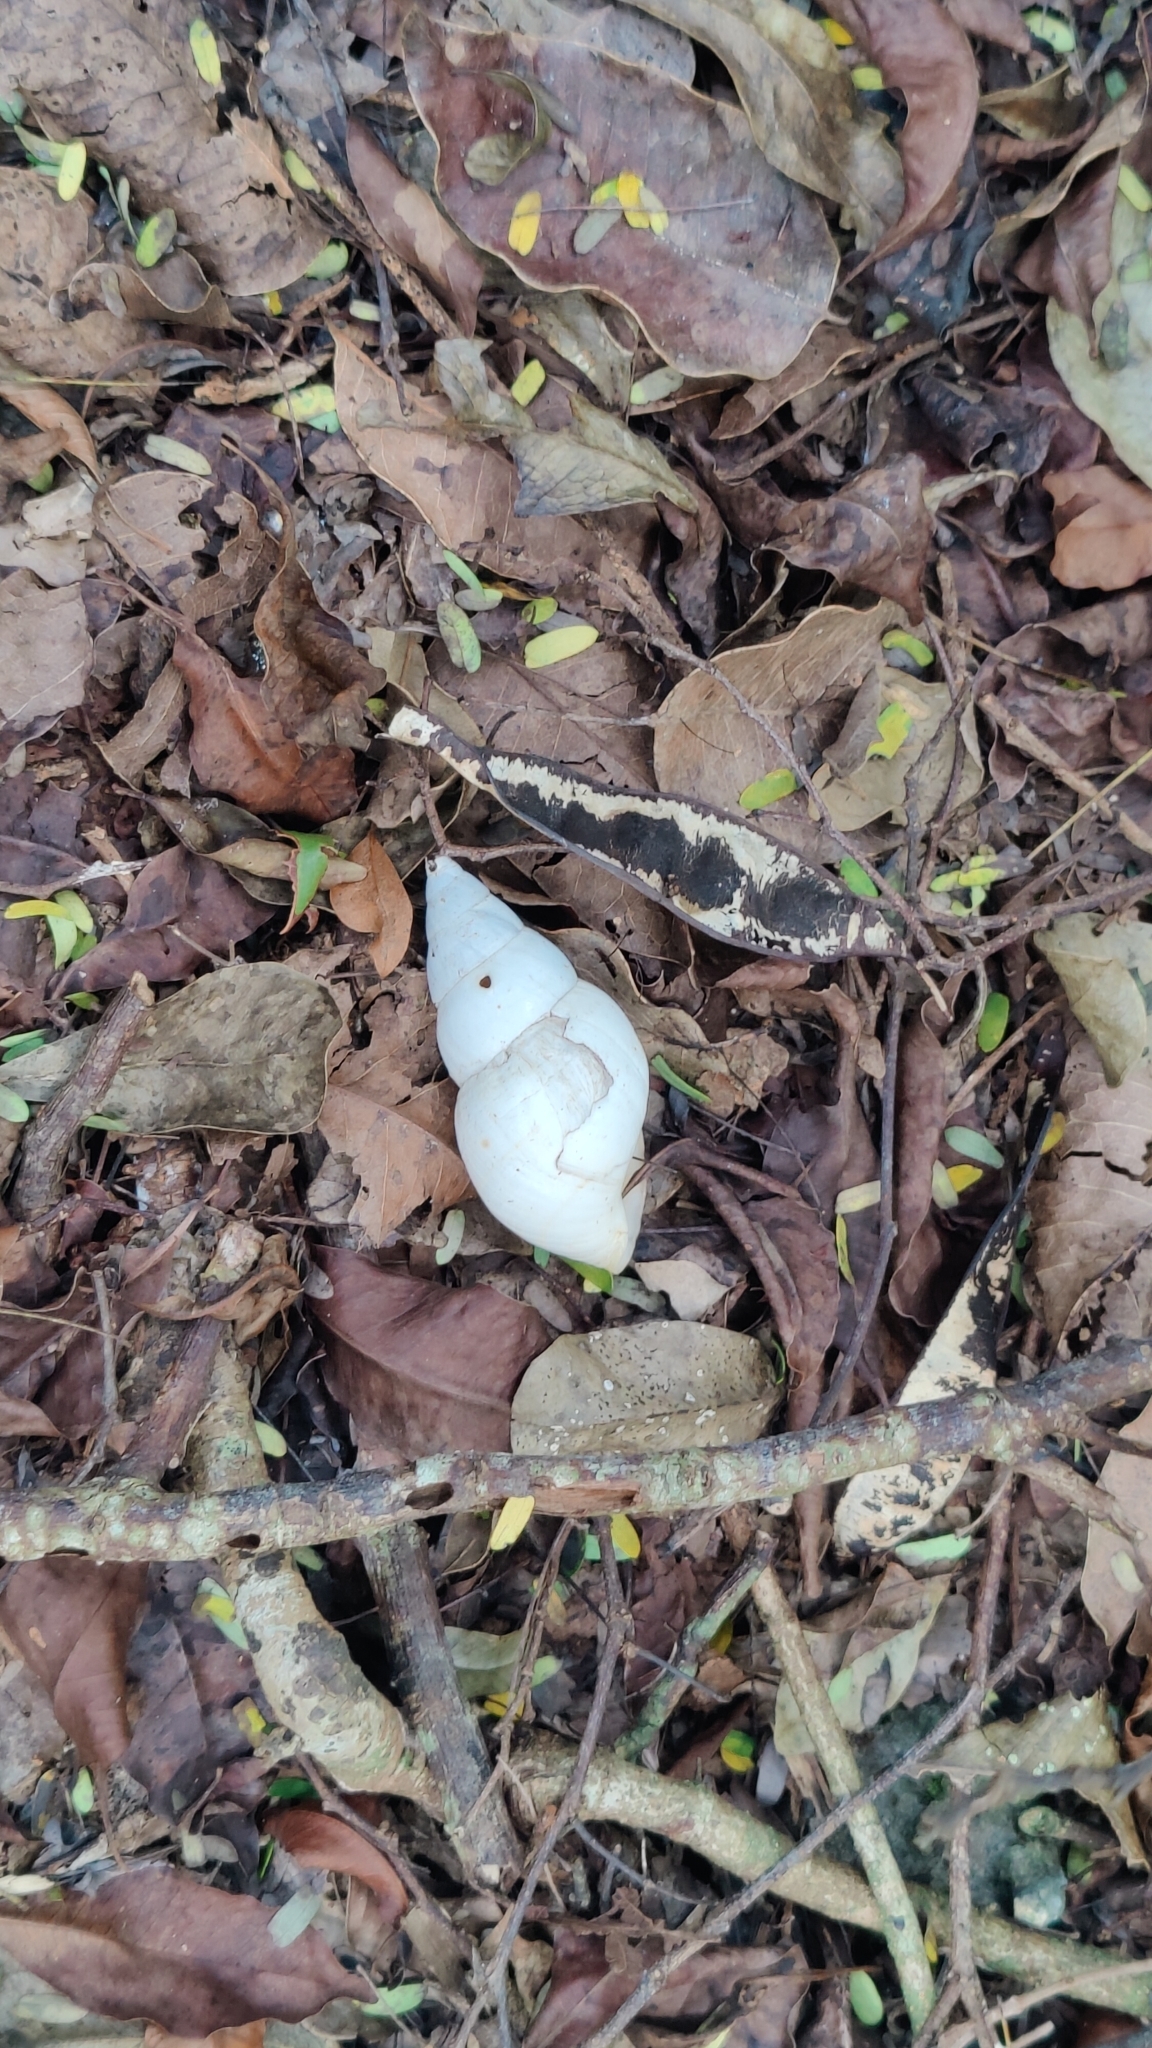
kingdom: Animalia
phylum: Mollusca
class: Gastropoda
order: Stylommatophora
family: Orthalicidae
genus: Liguus
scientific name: Liguus fasciatus
